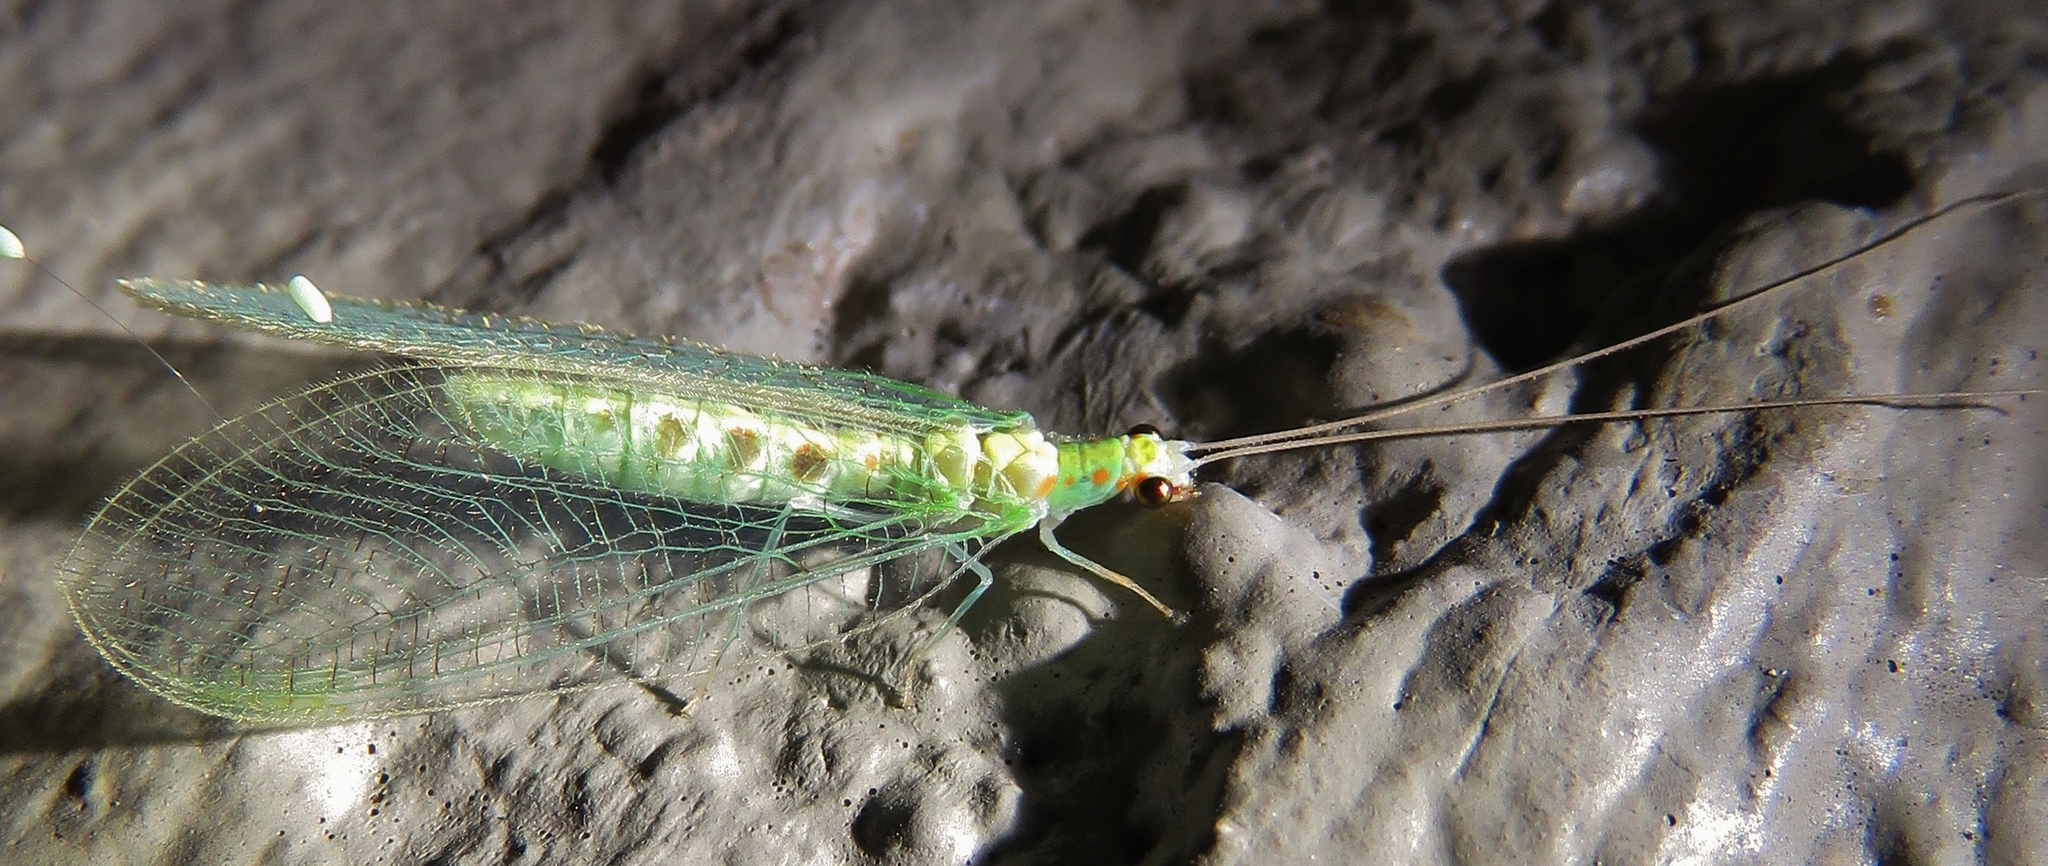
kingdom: Animalia
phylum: Arthropoda
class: Insecta
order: Neuroptera
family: Chrysopidae
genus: Chrysopa
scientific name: Chrysopa quadripunctata
